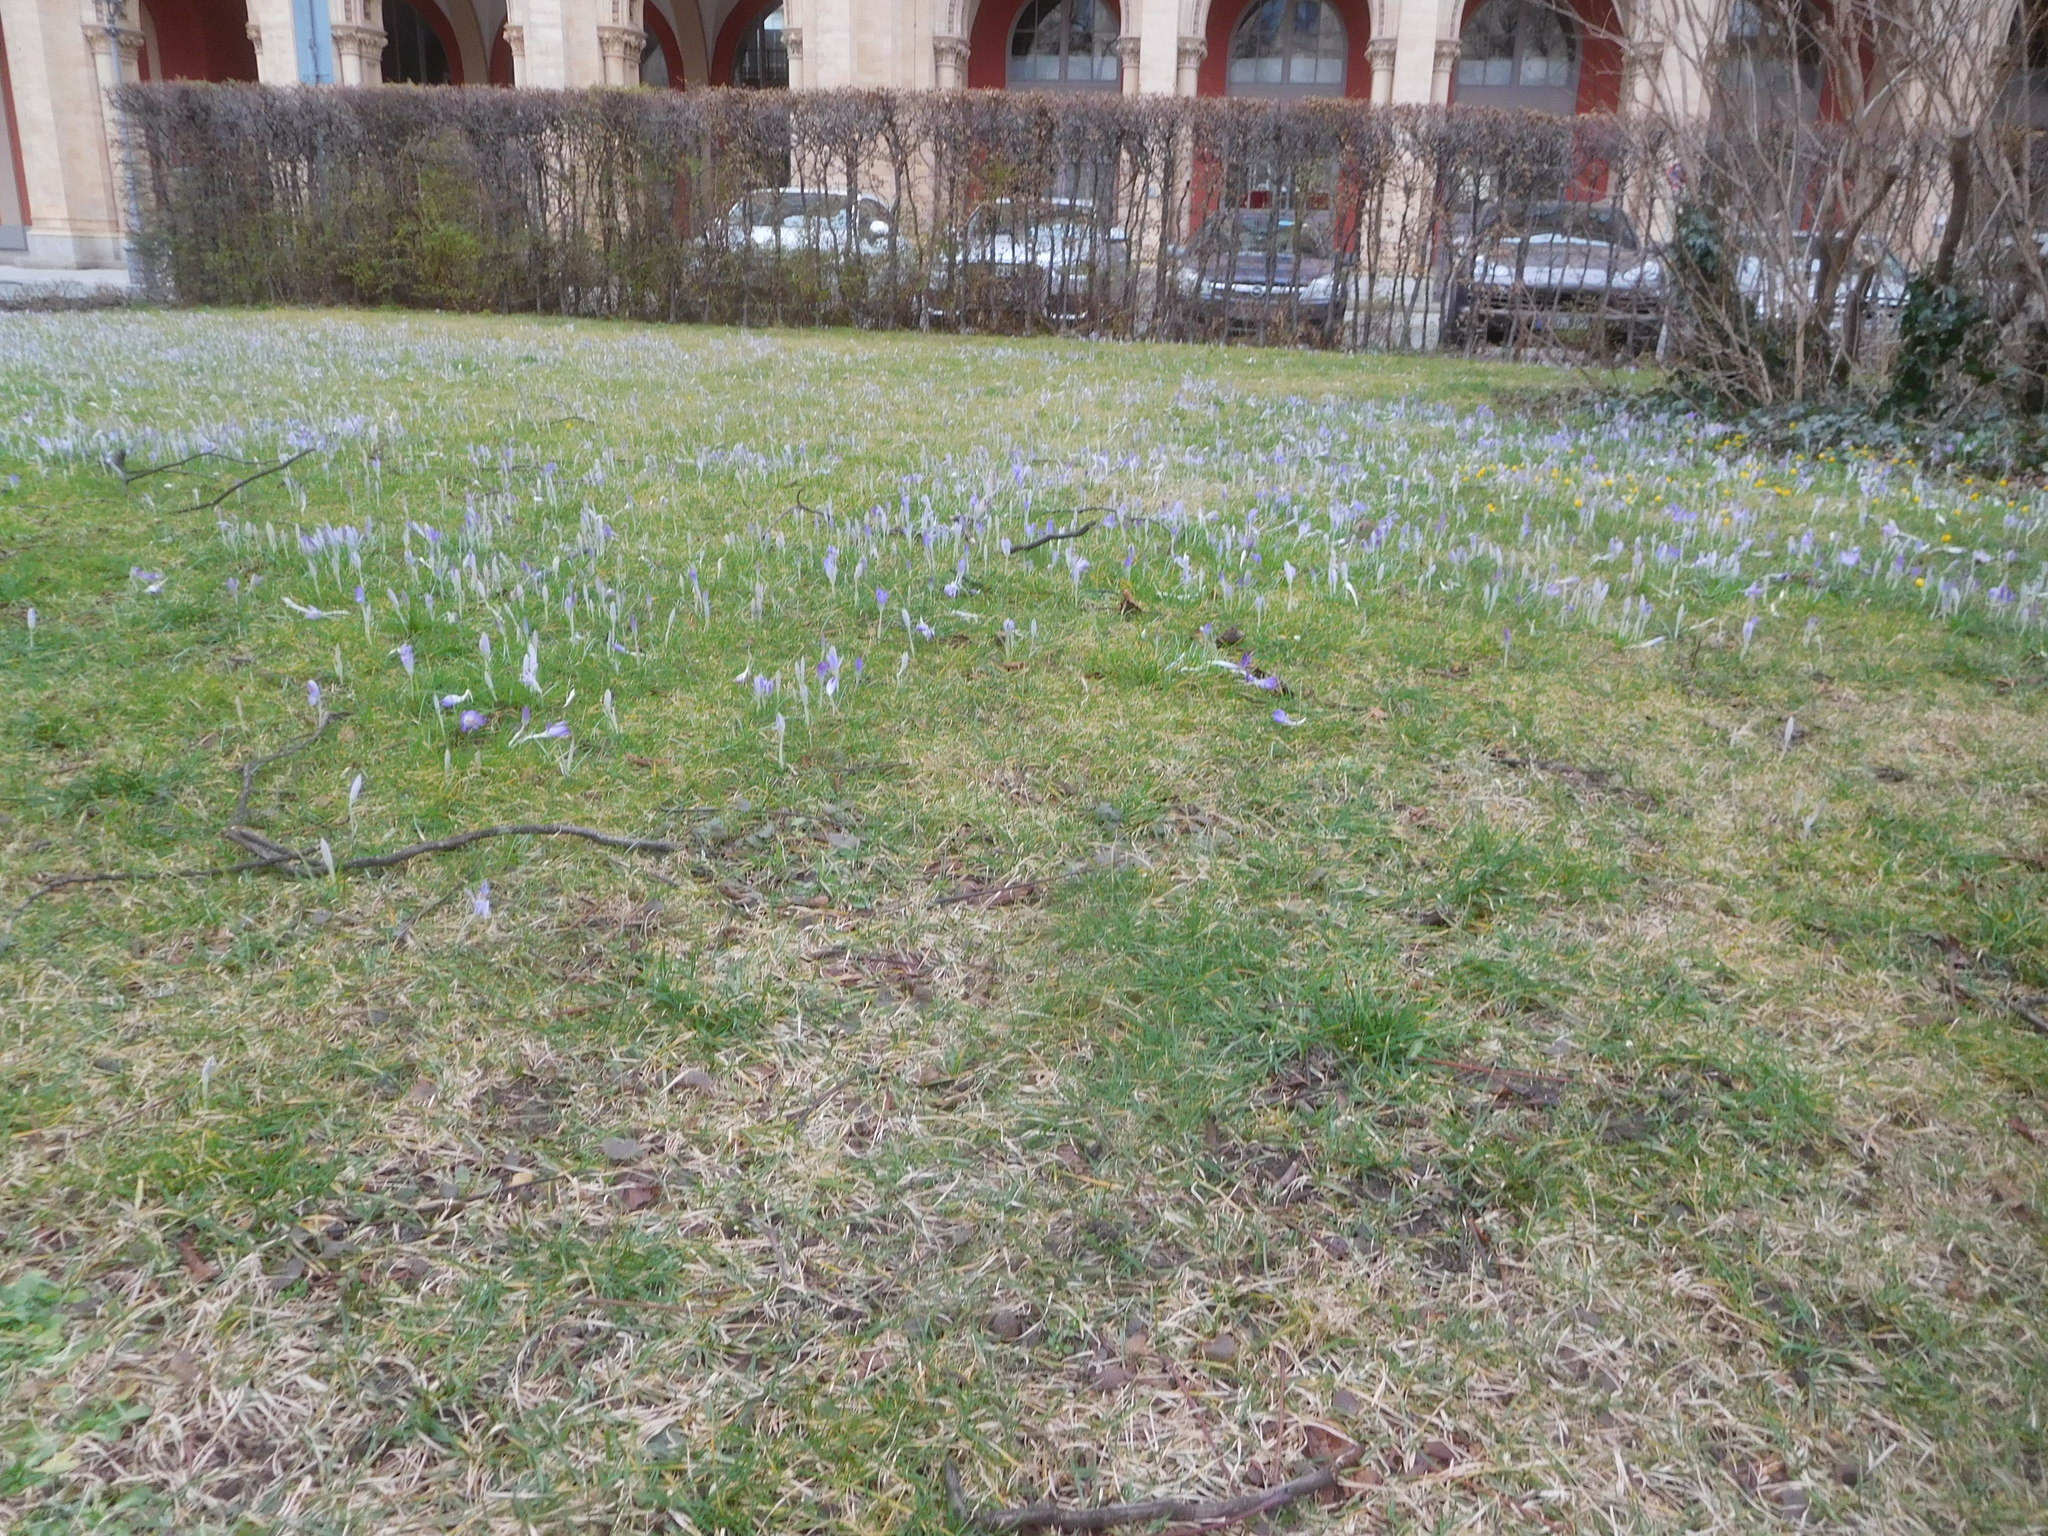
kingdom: Plantae
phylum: Tracheophyta
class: Liliopsida
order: Asparagales
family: Iridaceae
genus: Crocus
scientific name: Crocus tommasinianus
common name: Early crocus
